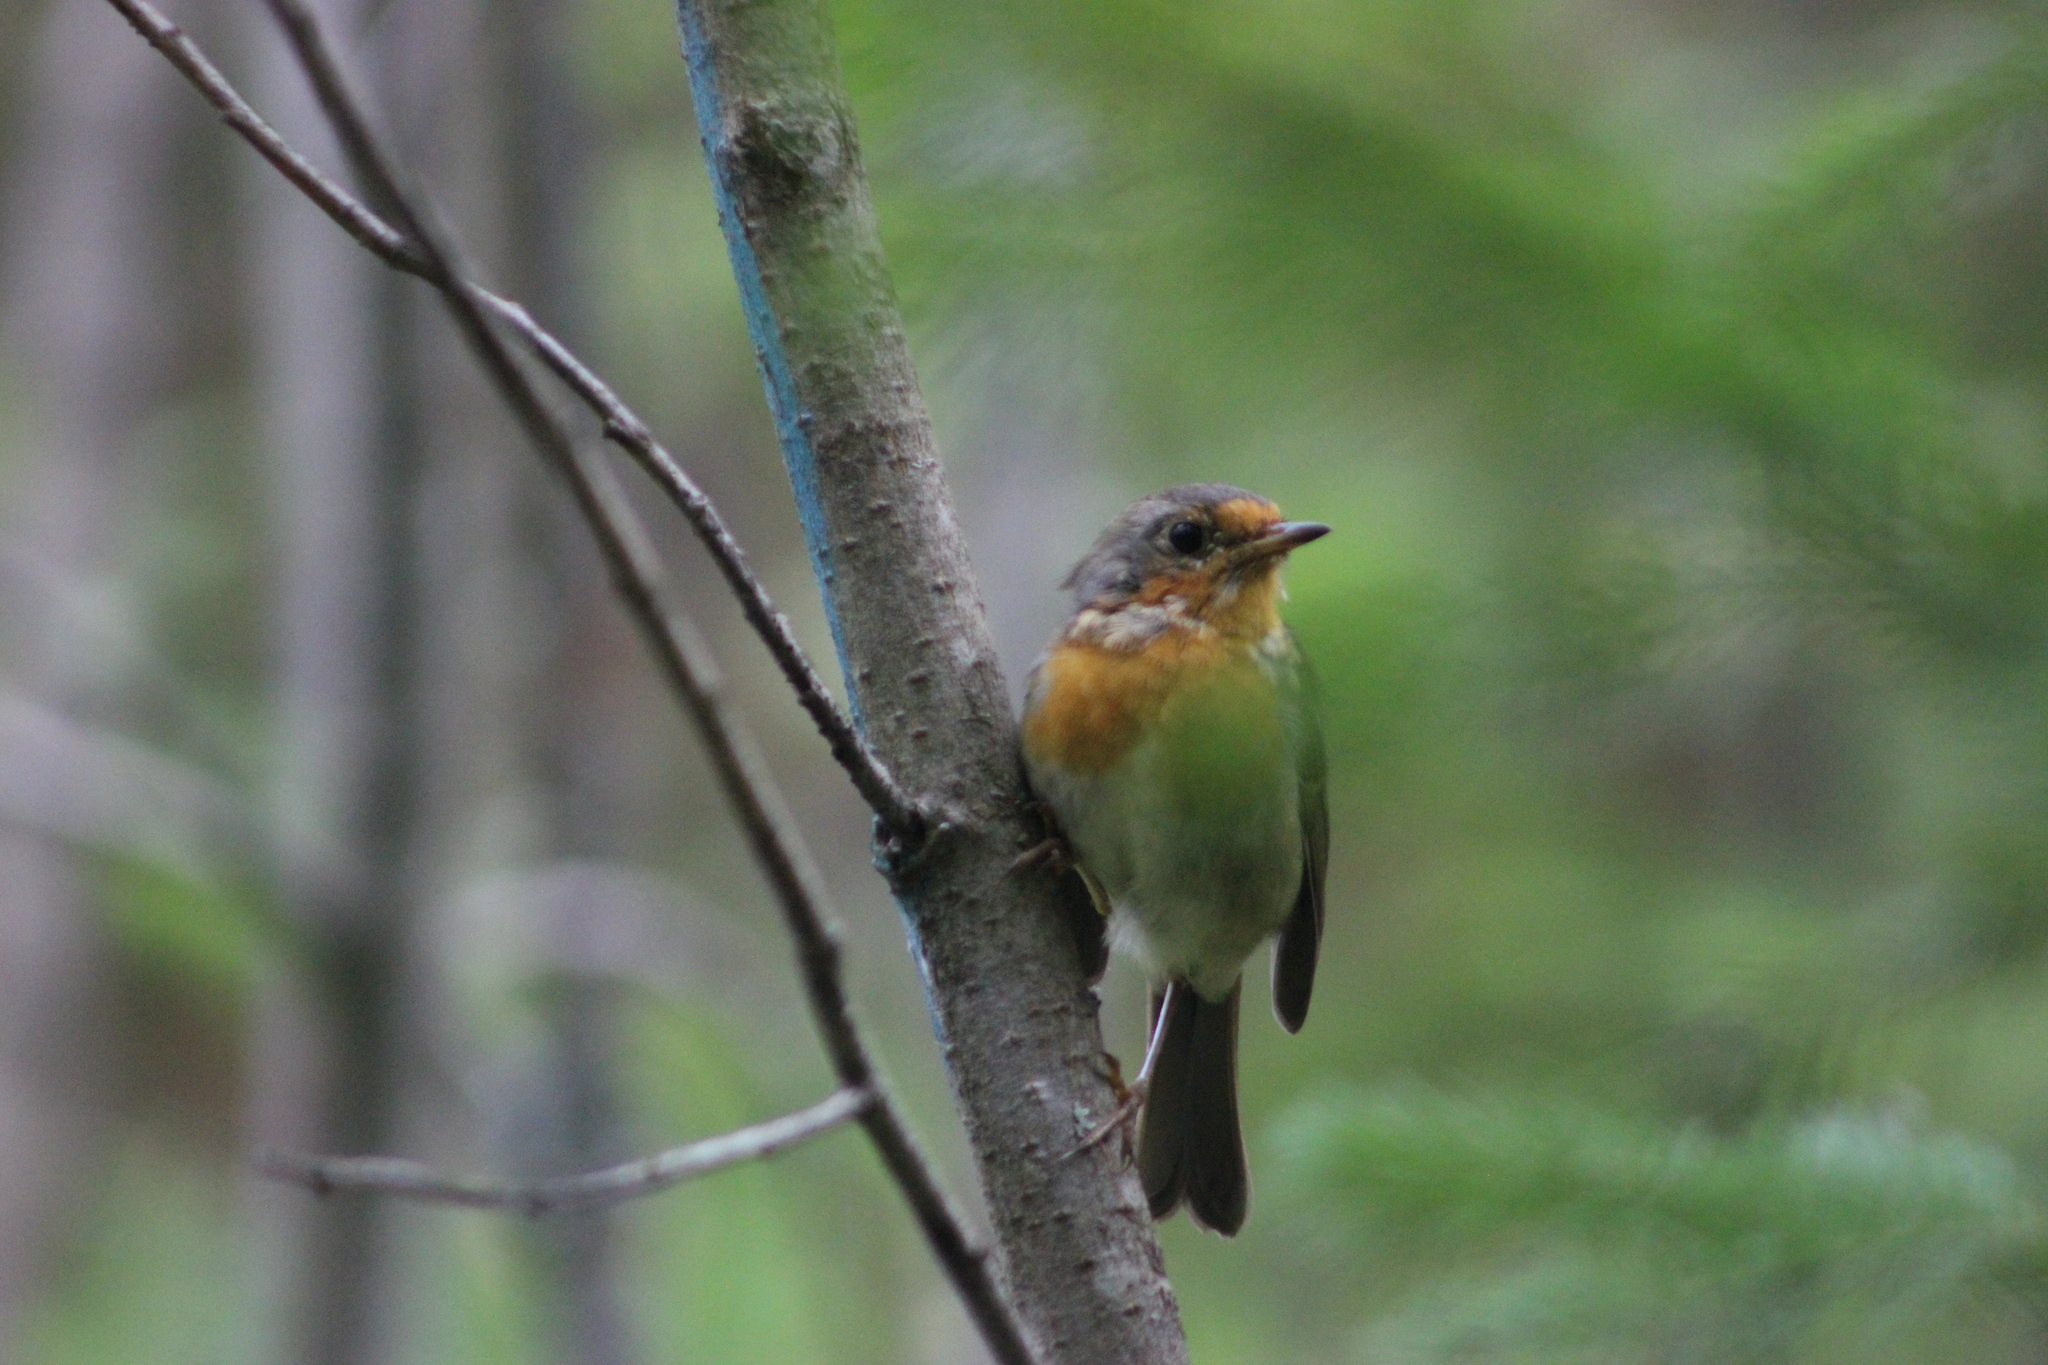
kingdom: Animalia
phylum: Chordata
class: Aves
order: Passeriformes
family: Muscicapidae
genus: Erithacus
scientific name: Erithacus rubecula
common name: European robin
